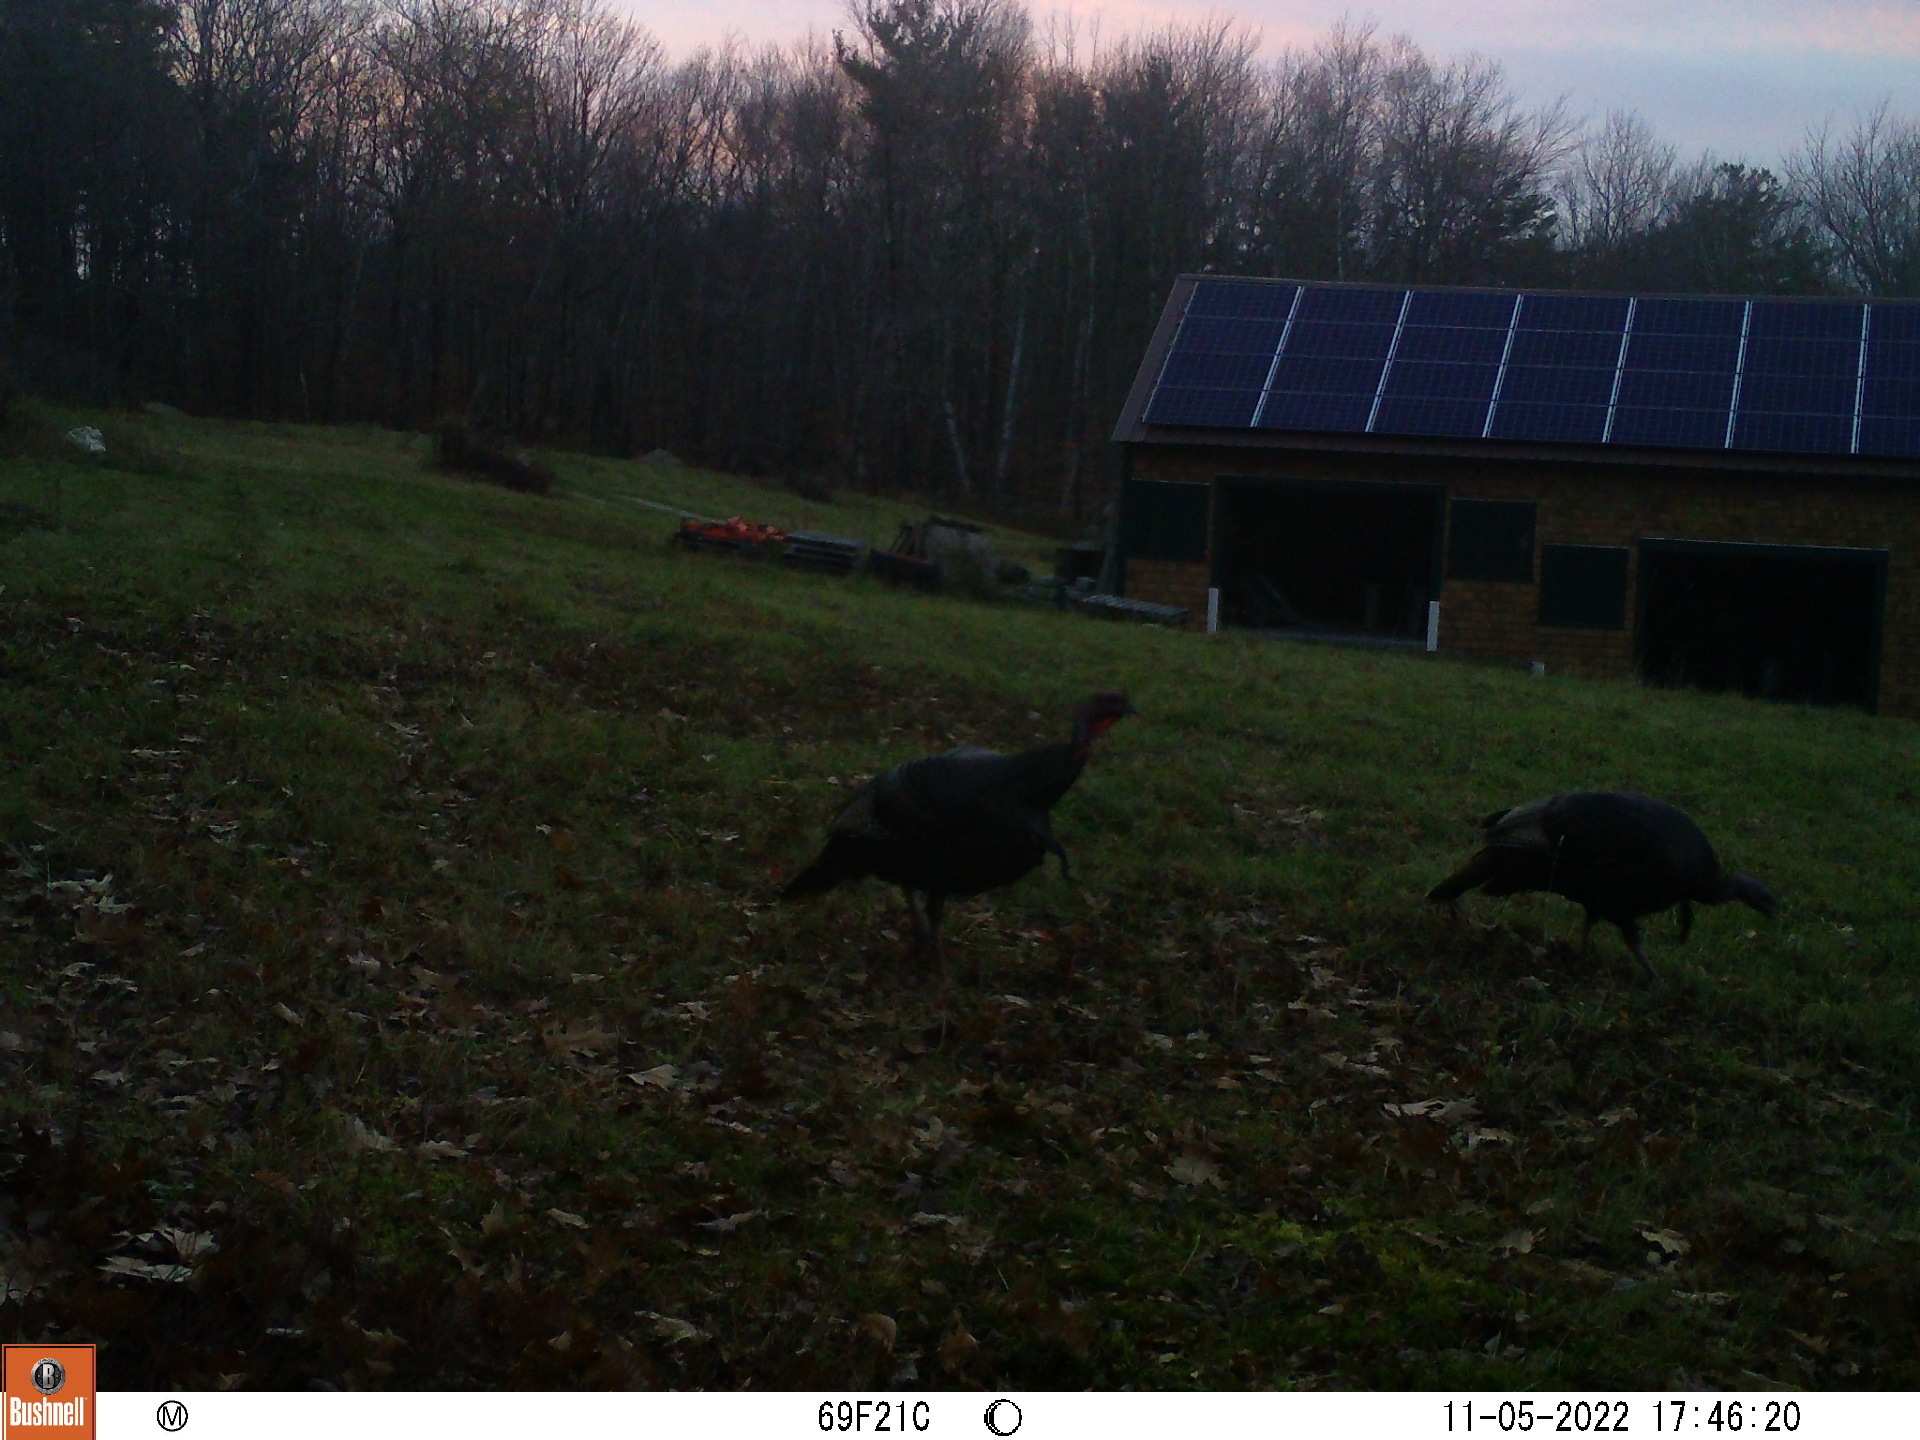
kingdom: Animalia
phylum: Chordata
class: Aves
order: Galliformes
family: Phasianidae
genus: Meleagris
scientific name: Meleagris gallopavo
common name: Wild turkey
